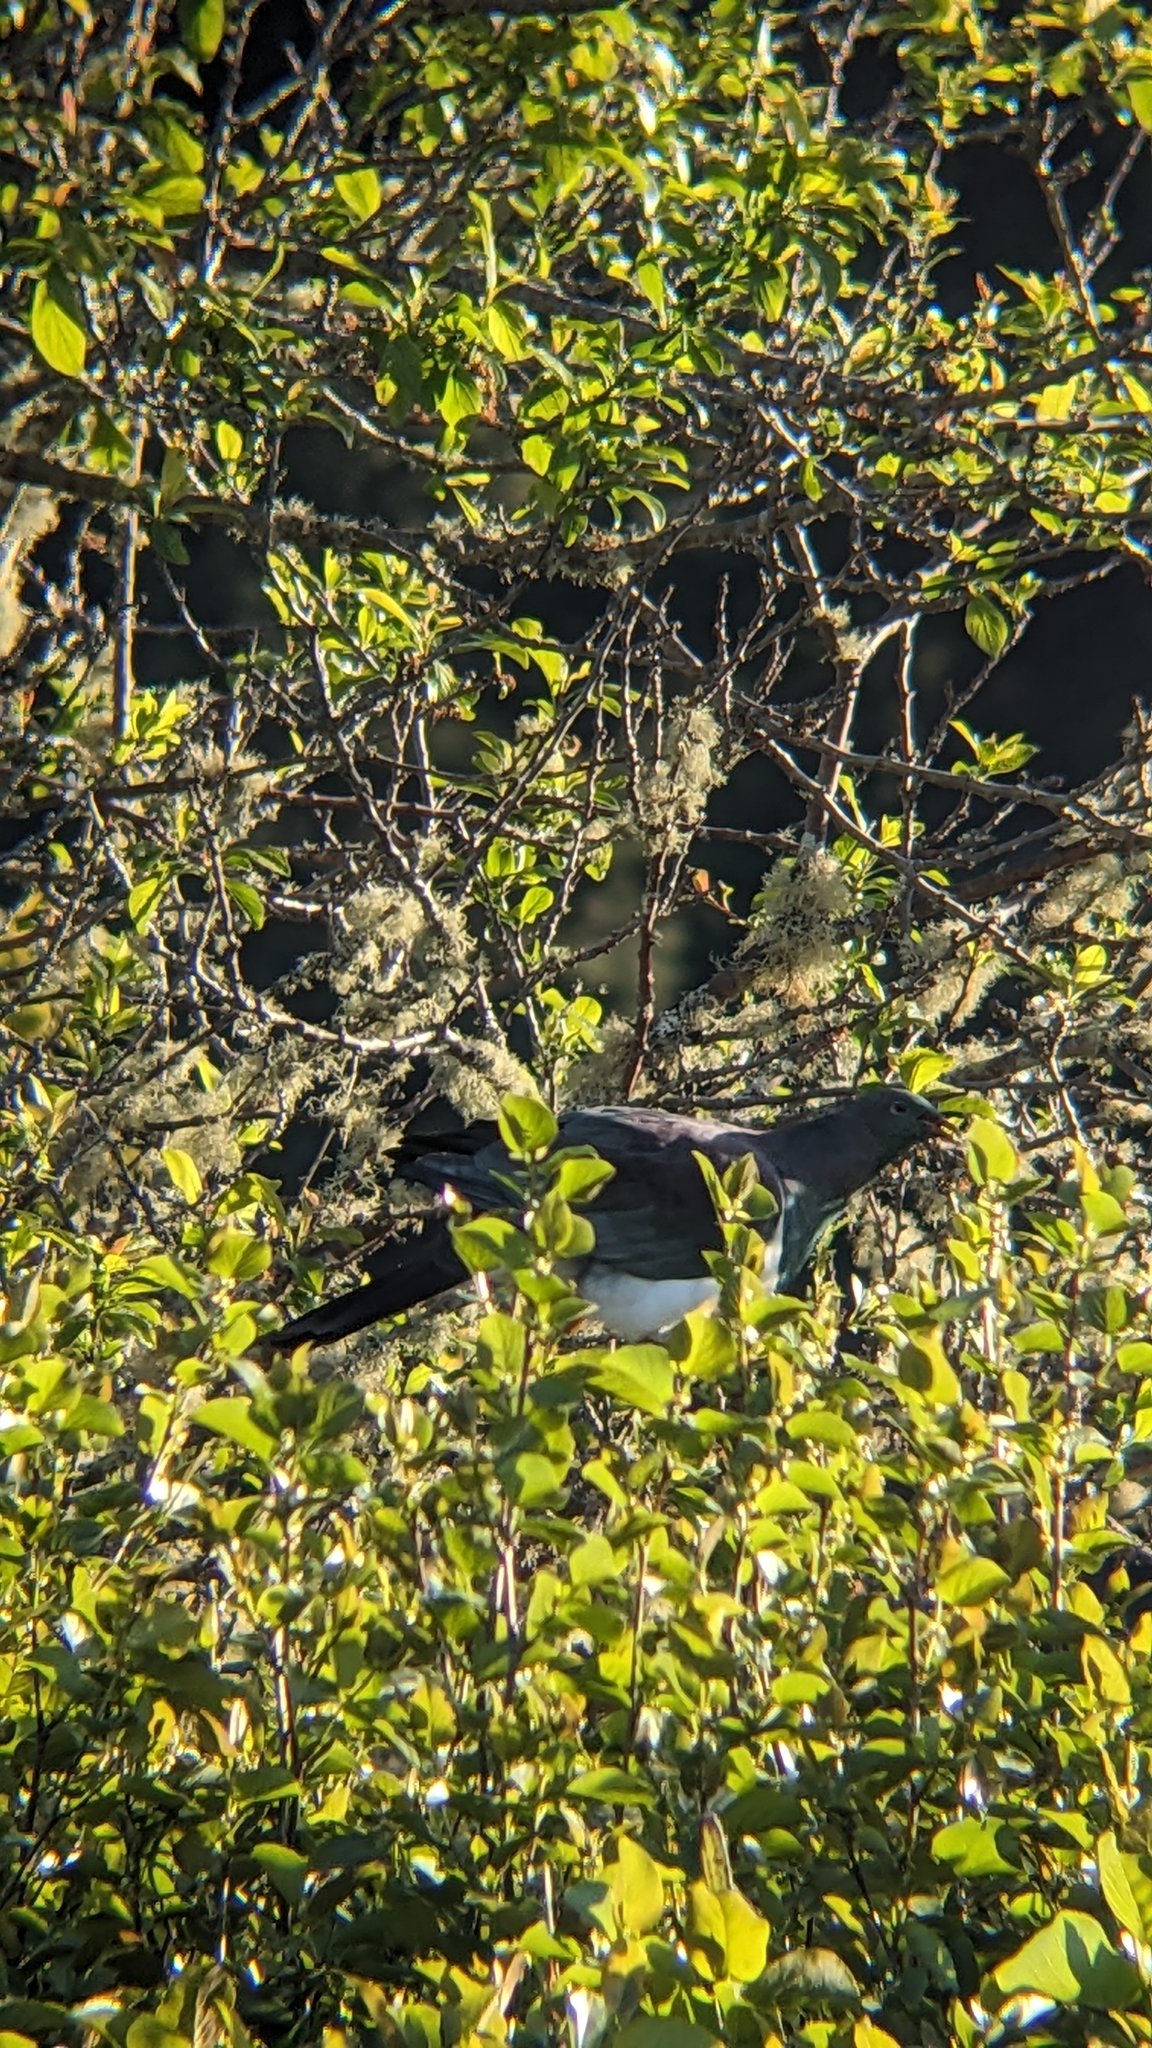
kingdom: Animalia
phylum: Chordata
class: Aves
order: Columbiformes
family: Columbidae
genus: Hemiphaga
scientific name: Hemiphaga novaeseelandiae
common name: New zealand pigeon
